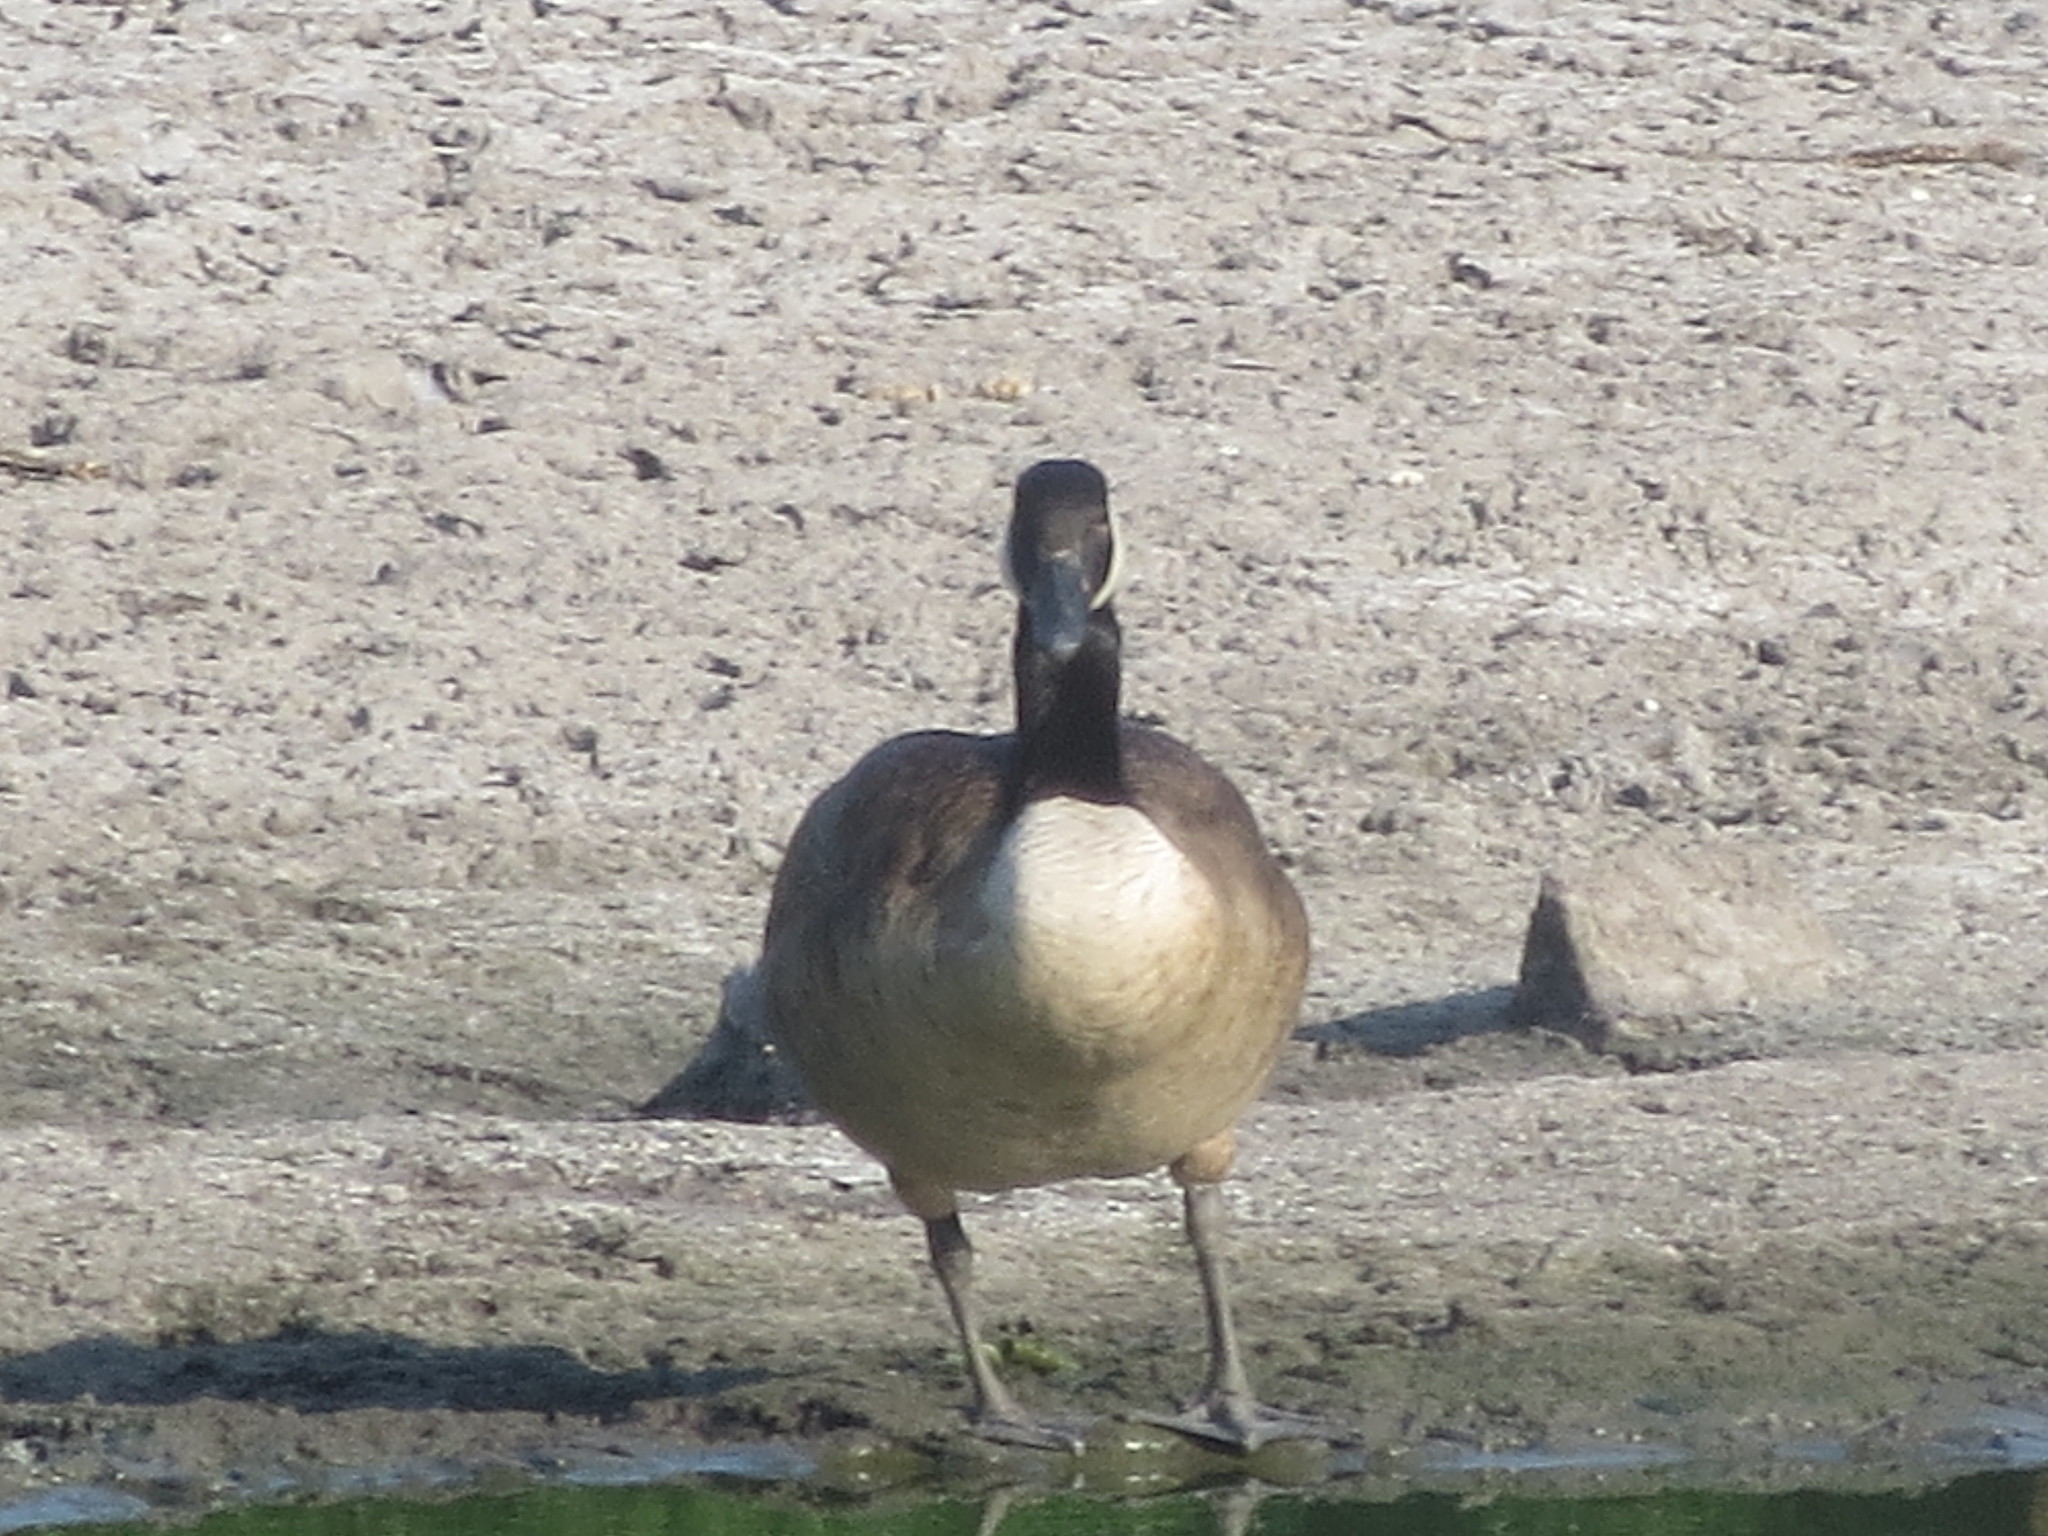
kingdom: Animalia
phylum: Chordata
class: Aves
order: Anseriformes
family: Anatidae
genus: Branta
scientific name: Branta canadensis
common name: Canada goose
